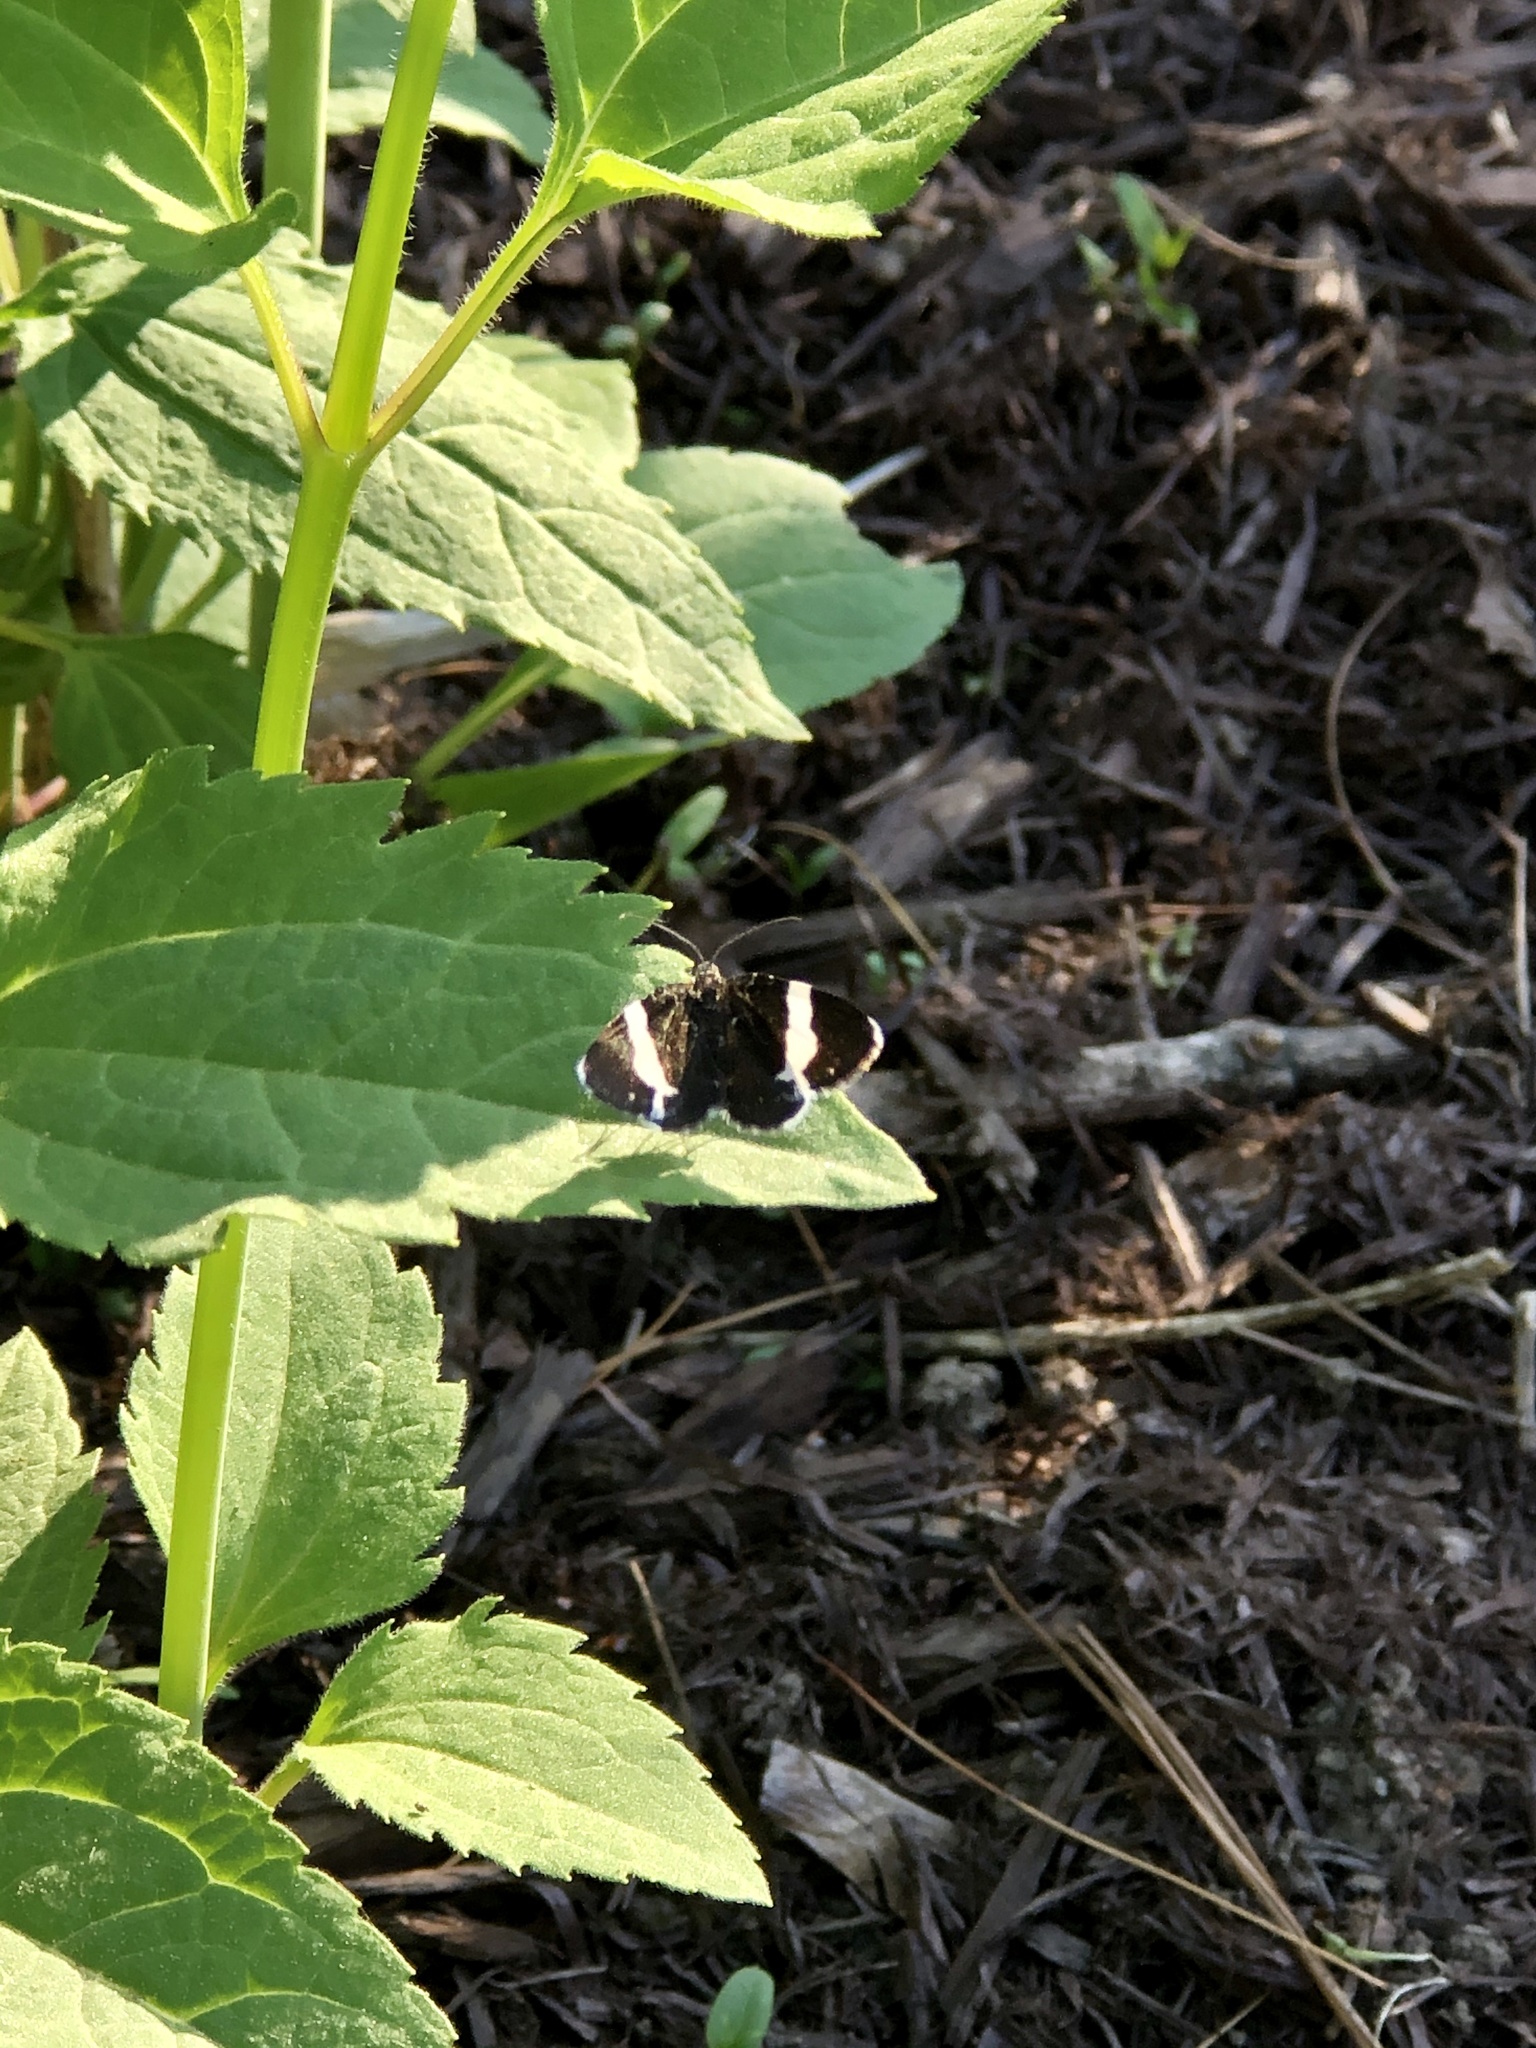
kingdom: Animalia
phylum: Arthropoda
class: Insecta
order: Lepidoptera
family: Geometridae
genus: Trichodezia
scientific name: Trichodezia albovittata
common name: White striped black
